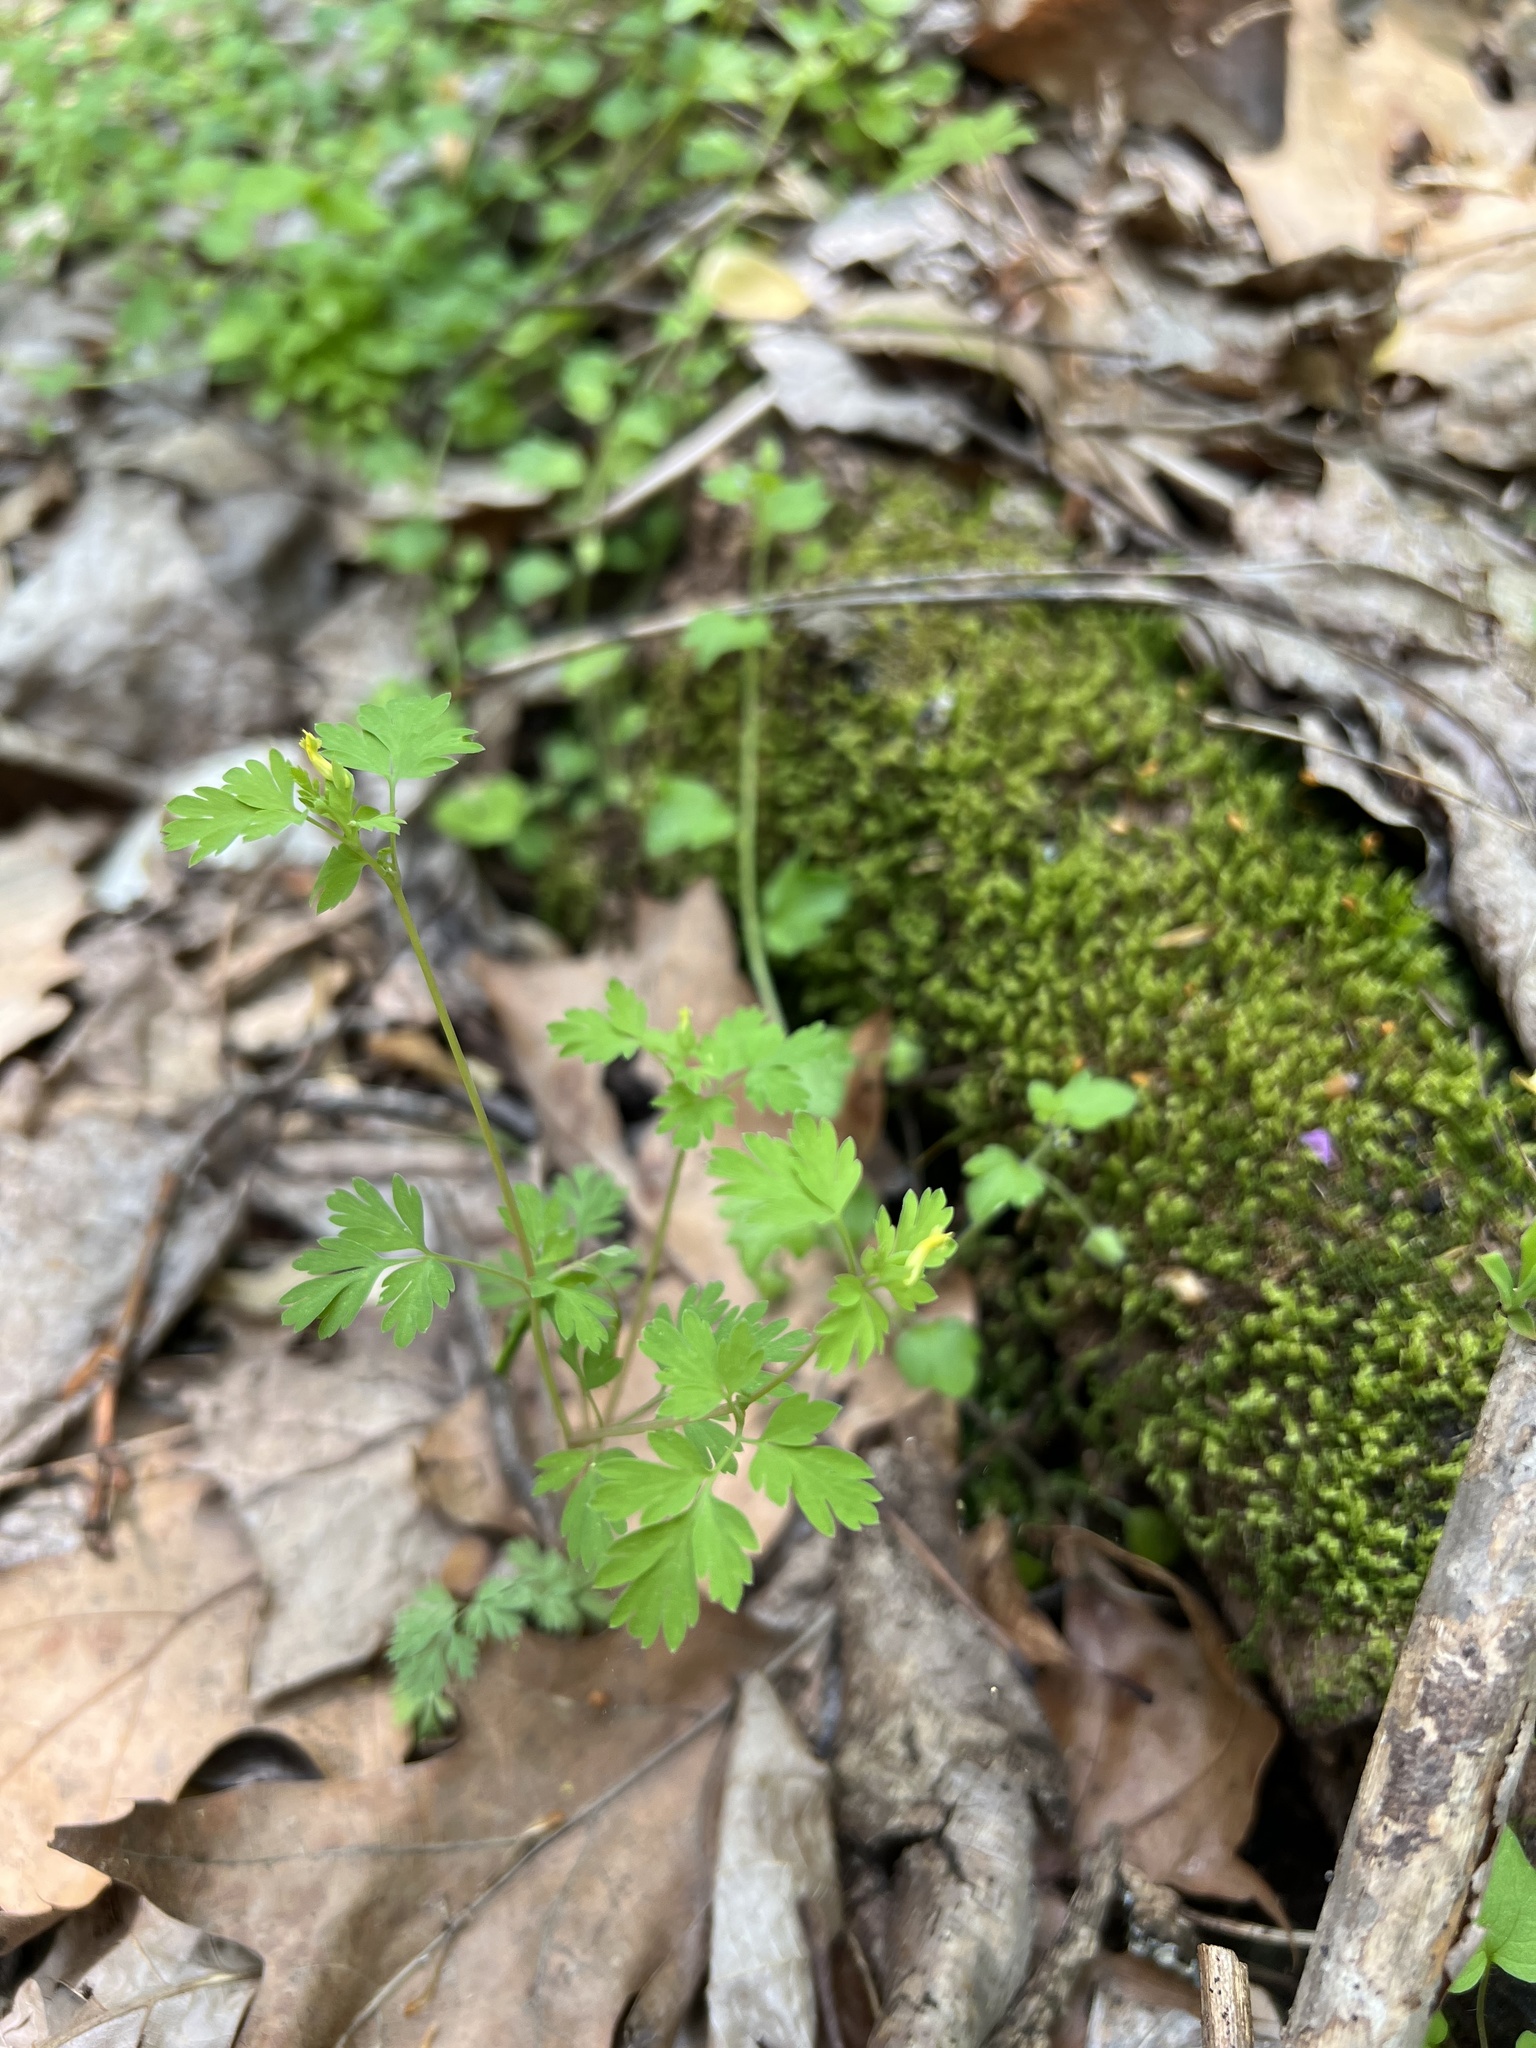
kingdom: Plantae
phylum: Tracheophyta
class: Magnoliopsida
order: Ranunculales
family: Papaveraceae
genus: Corydalis
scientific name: Corydalis flavula
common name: Yellow corydalis
